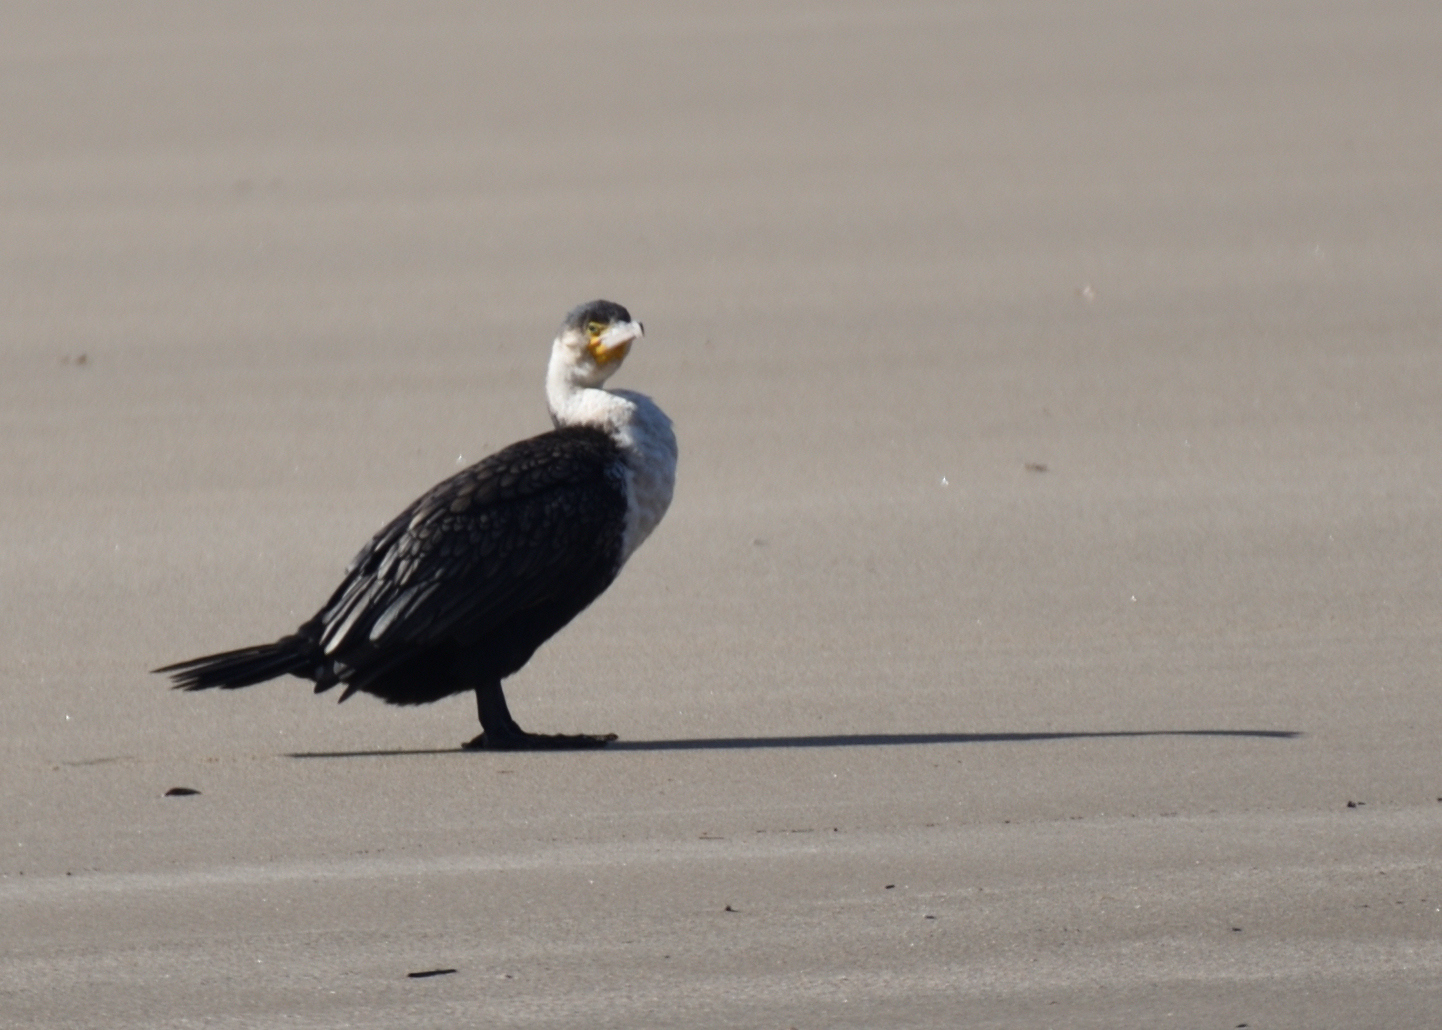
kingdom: Animalia
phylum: Chordata
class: Aves
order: Suliformes
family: Phalacrocoracidae
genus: Phalacrocorax
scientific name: Phalacrocorax carbo
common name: Great cormorant
